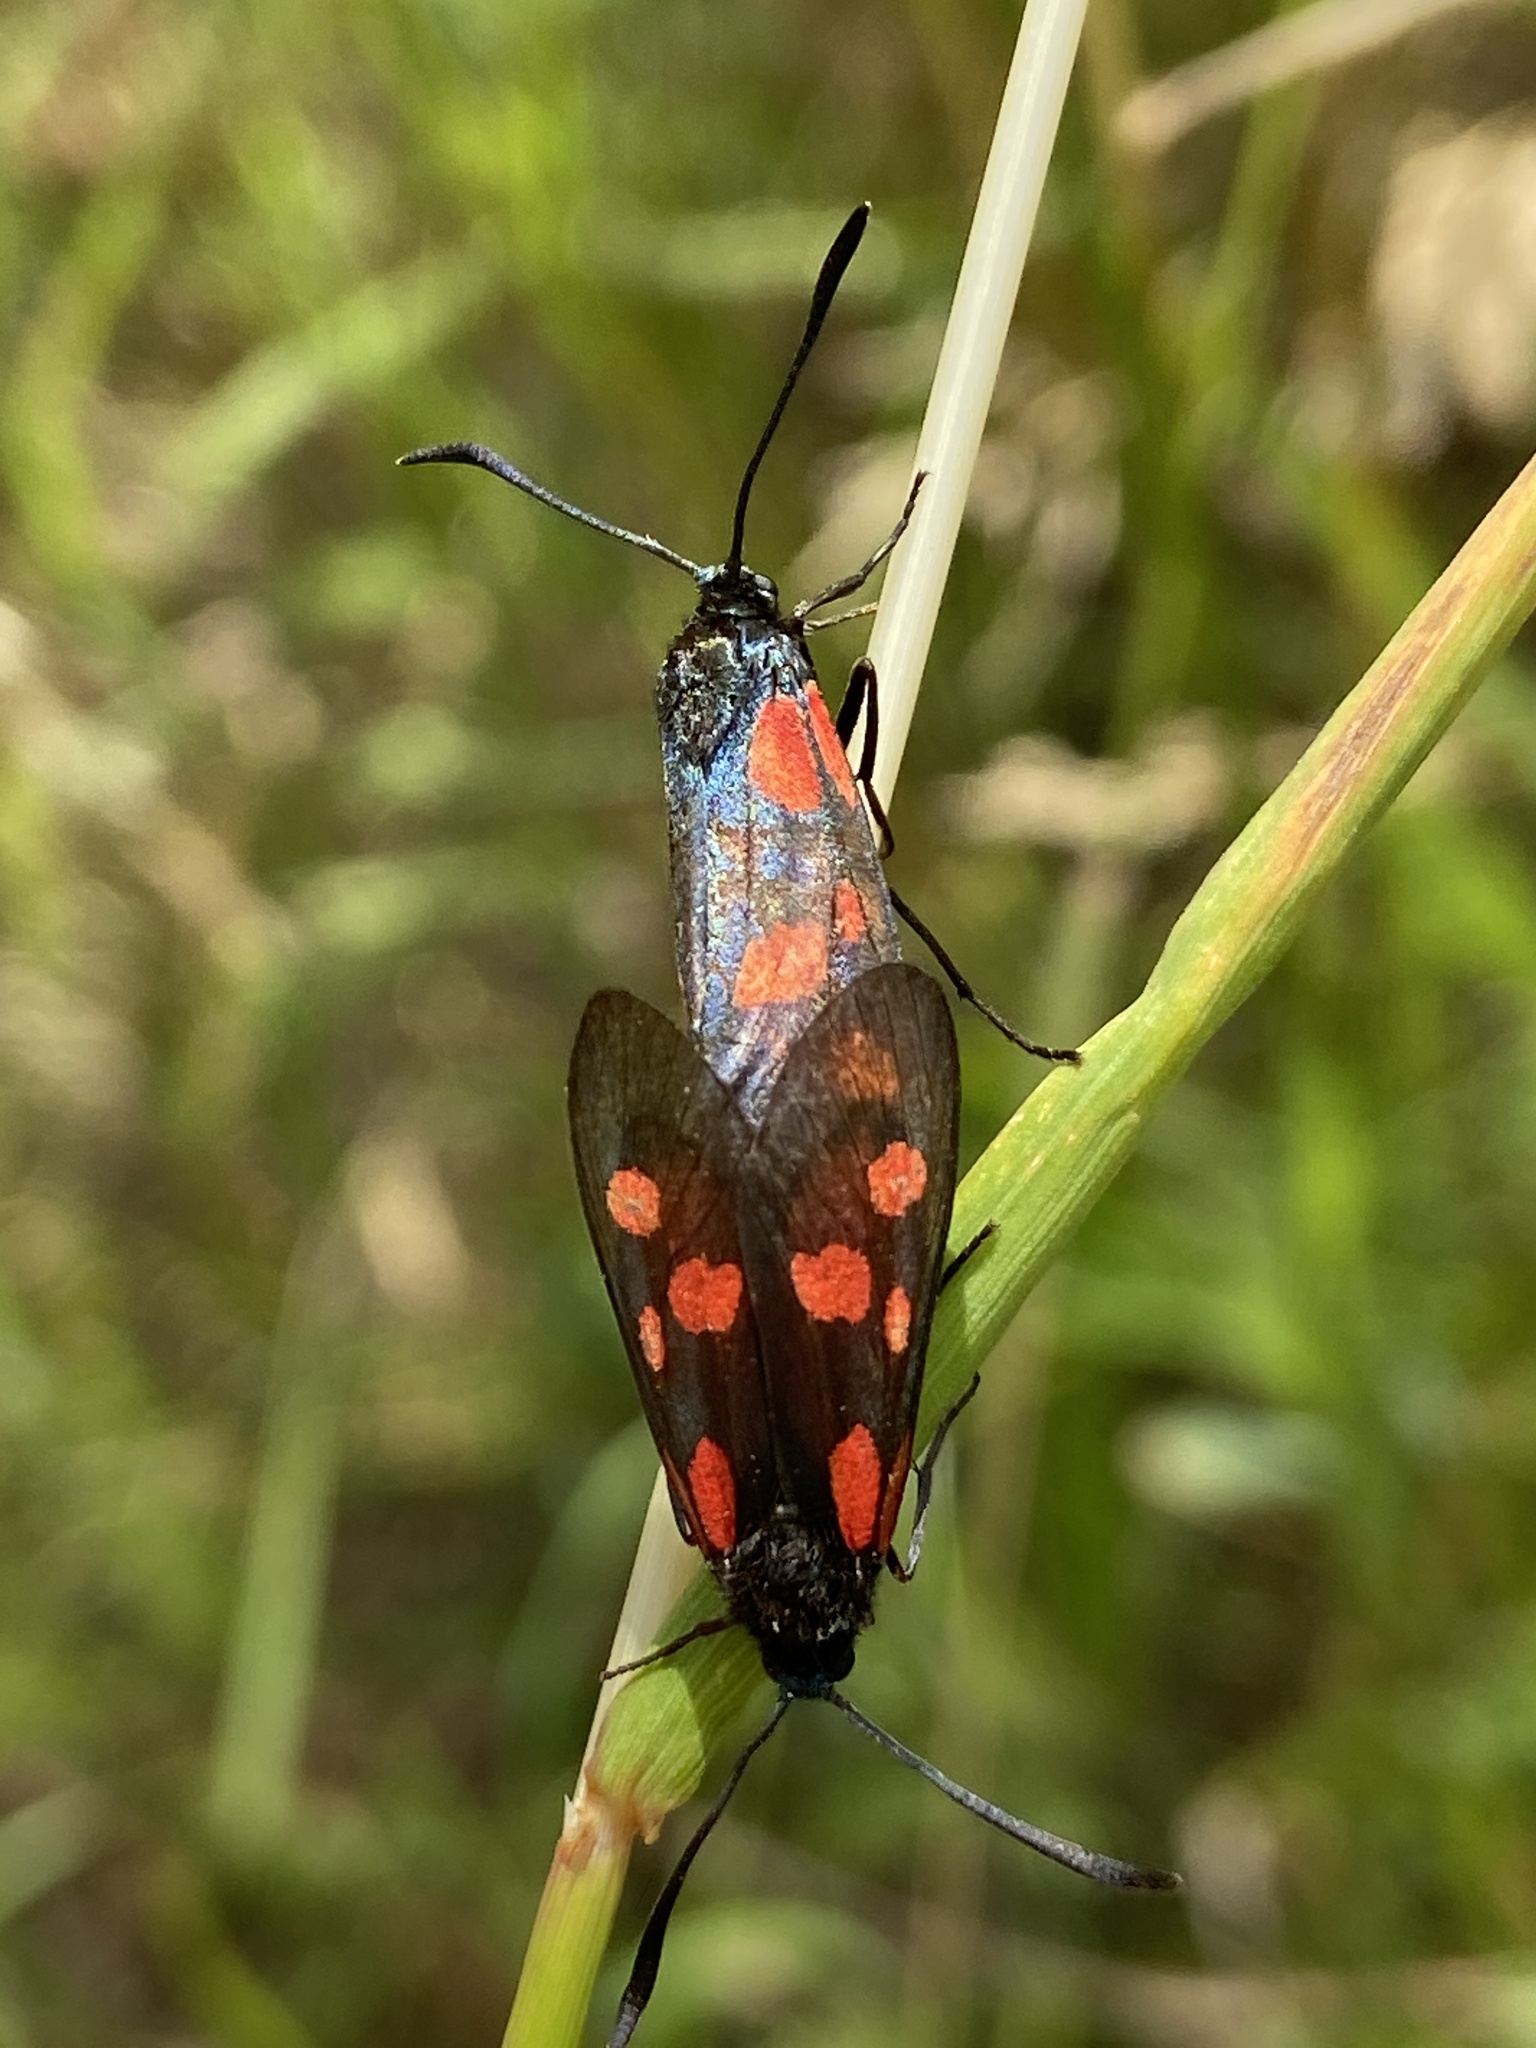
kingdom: Animalia
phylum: Arthropoda
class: Insecta
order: Lepidoptera
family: Zygaenidae
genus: Zygaena
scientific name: Zygaena viciae
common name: New forest burnet
